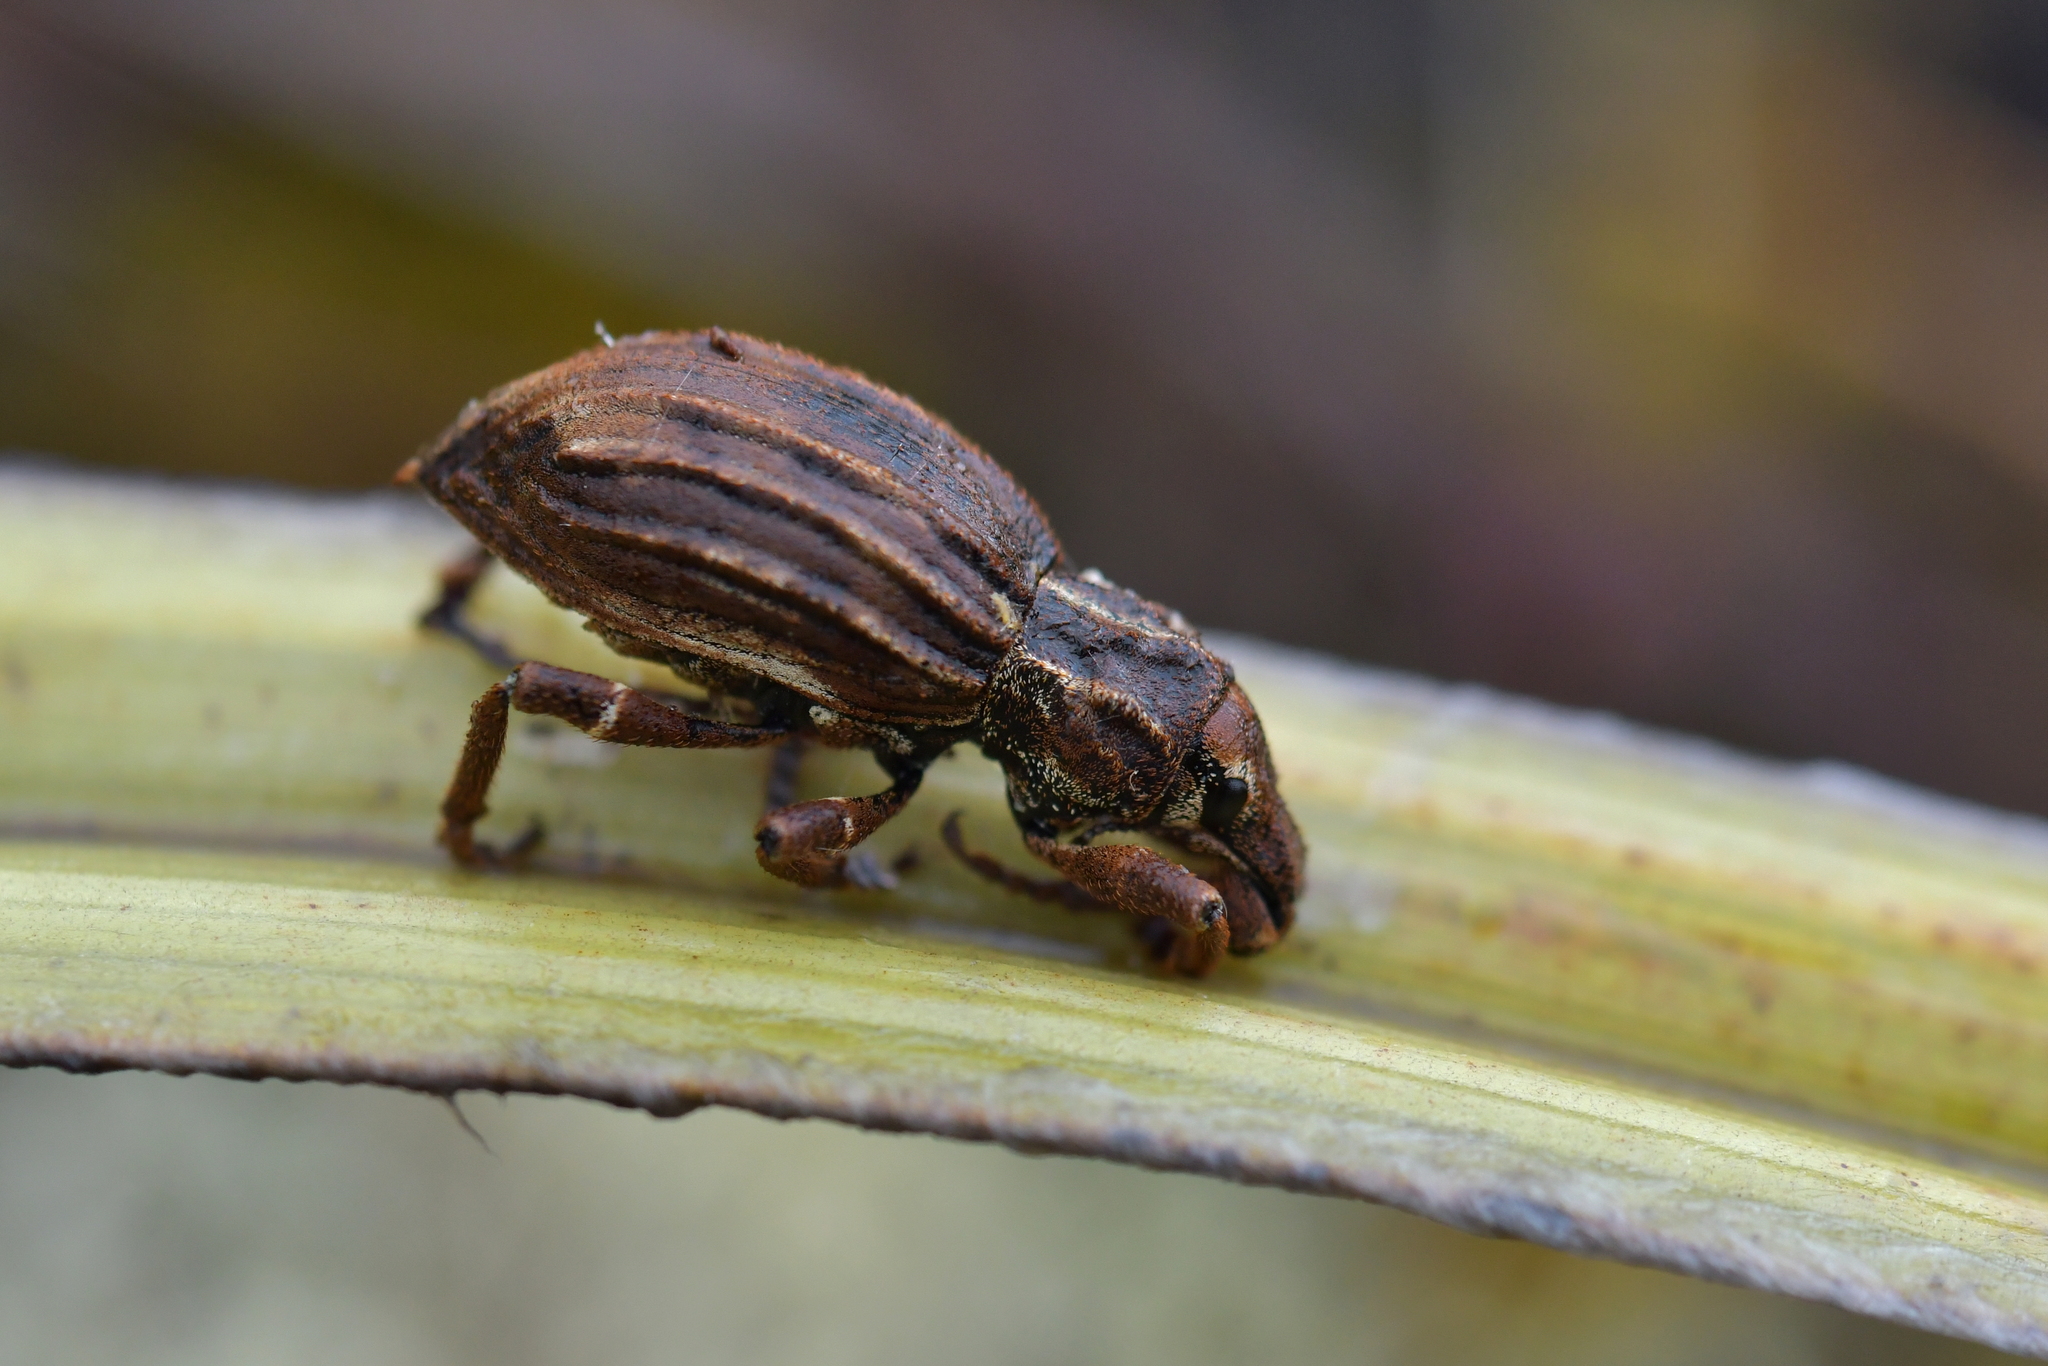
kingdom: Animalia
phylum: Arthropoda
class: Insecta
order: Coleoptera
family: Curculionidae
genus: Anagotus
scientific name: Anagotus
